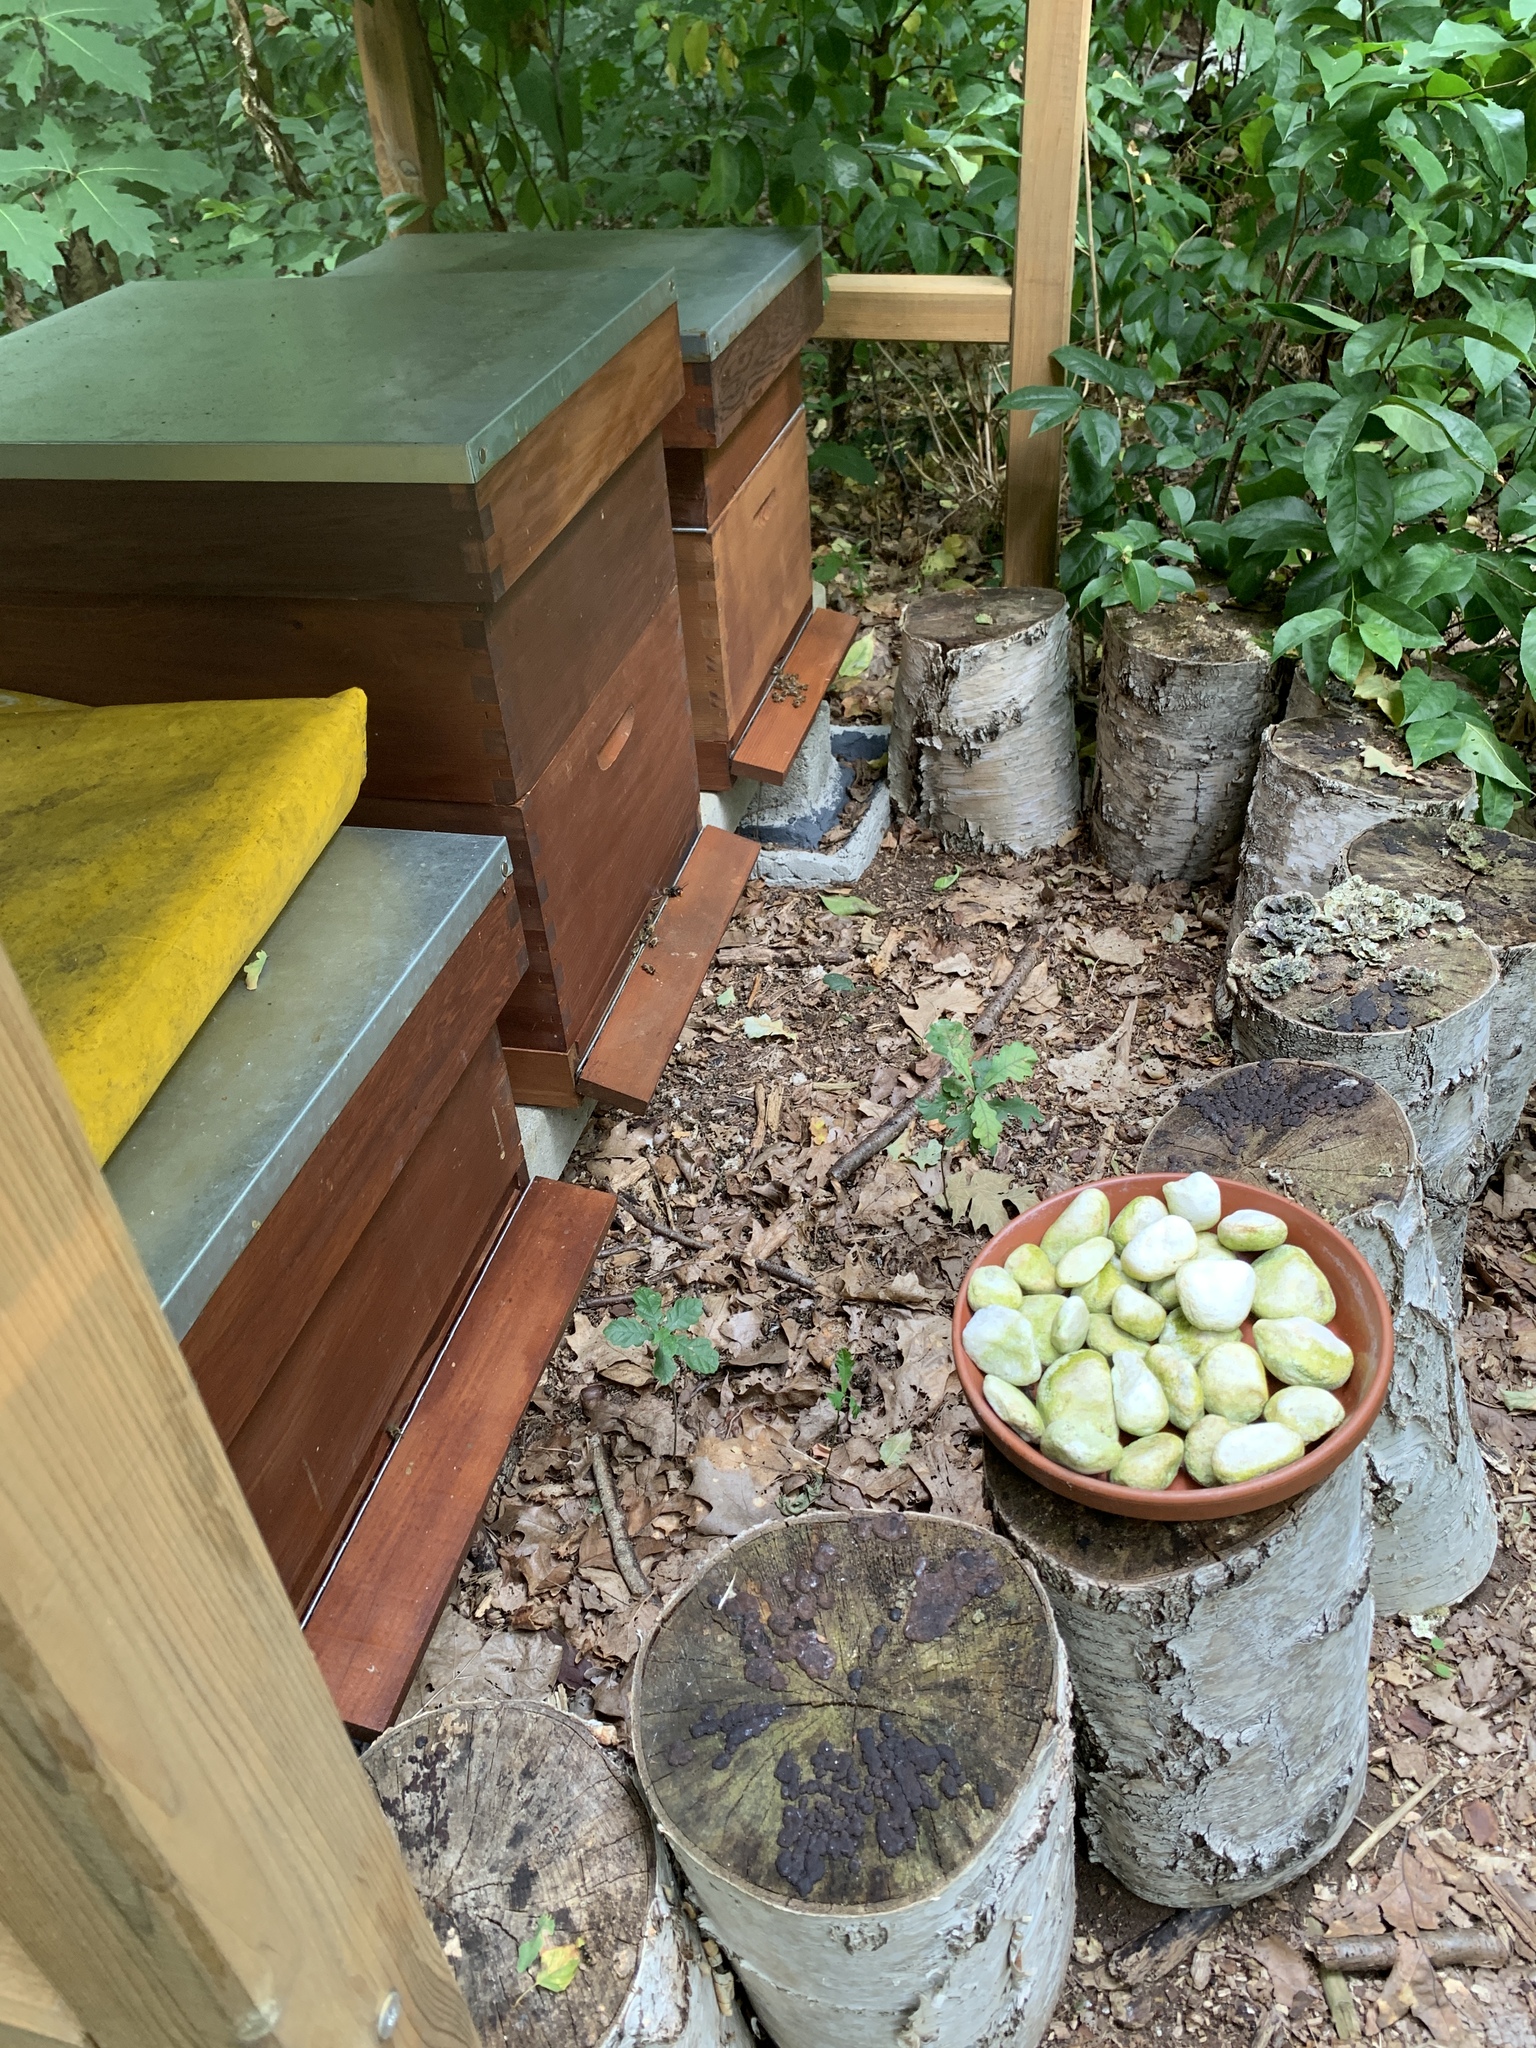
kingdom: Animalia
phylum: Arthropoda
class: Insecta
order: Hymenoptera
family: Vespidae
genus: Vespa
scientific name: Vespa velutina
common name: Asian hornet
